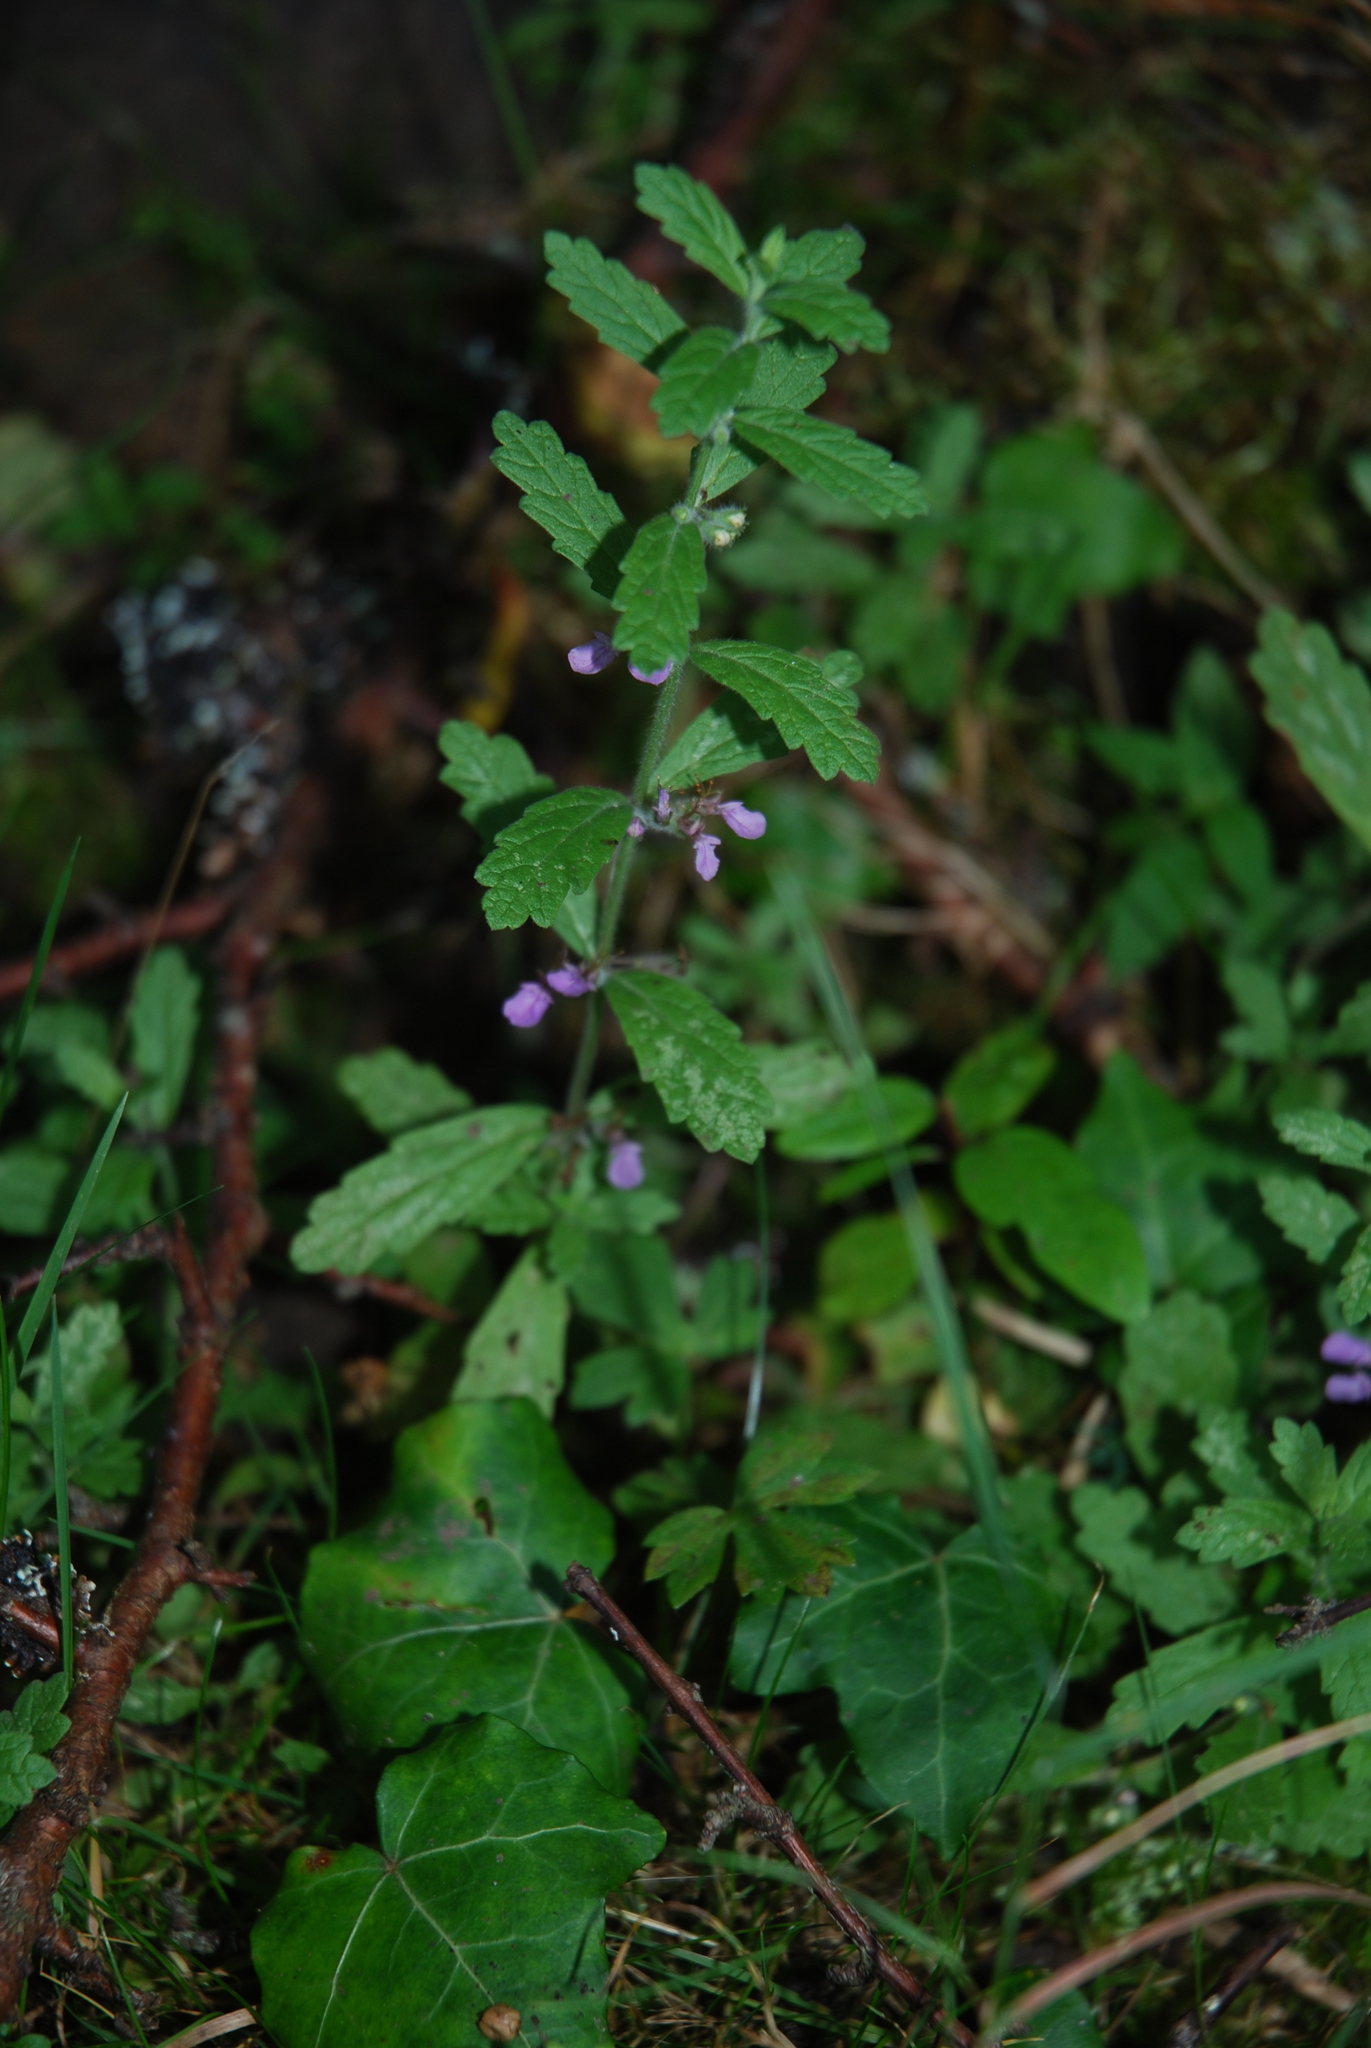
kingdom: Plantae
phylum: Tracheophyta
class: Magnoliopsida
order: Lamiales
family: Lamiaceae
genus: Teucrium
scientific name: Teucrium scordium
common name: Water germander
